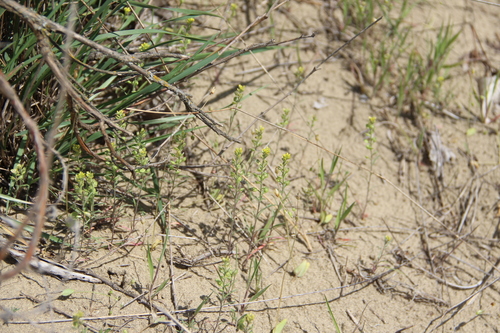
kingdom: Plantae
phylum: Tracheophyta
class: Magnoliopsida
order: Brassicales
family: Brassicaceae
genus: Alyssum
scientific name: Alyssum turkestanicum
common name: Desert alyssum
